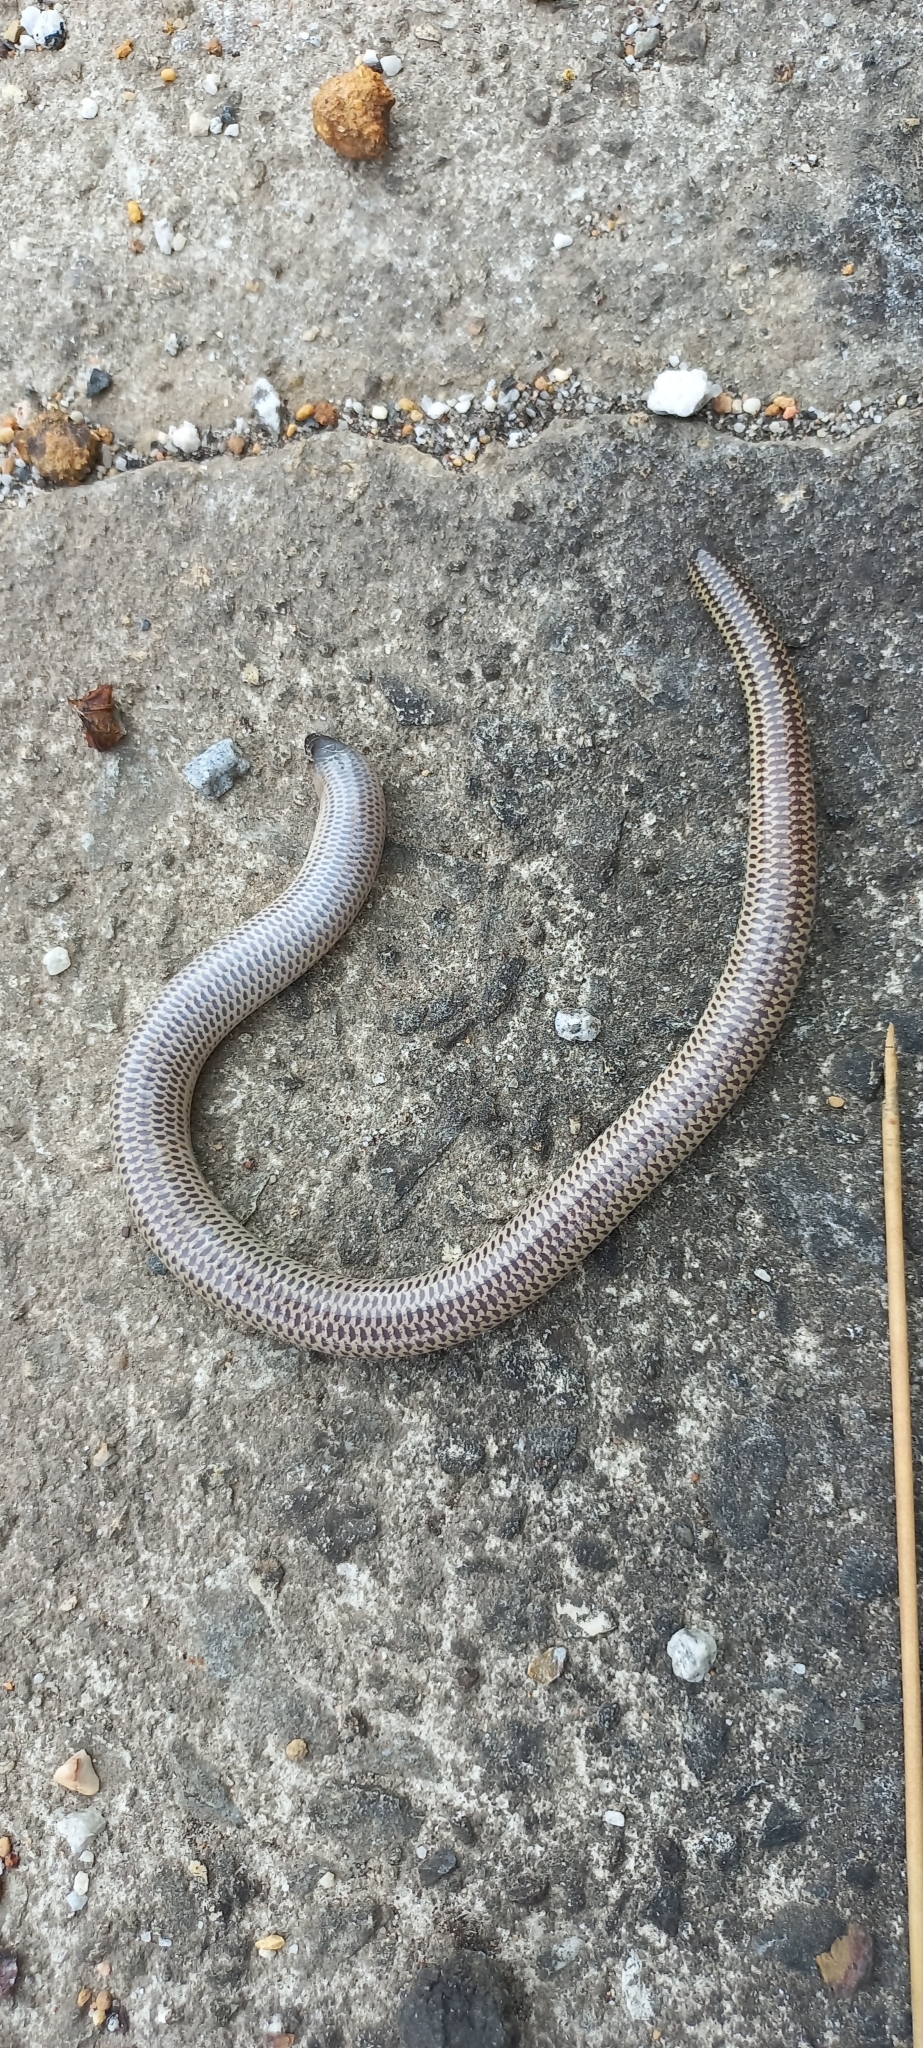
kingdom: Animalia
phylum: Chordata
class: Squamata
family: Scincidae
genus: Acontias
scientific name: Acontias meleagris
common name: Cape legless skink
